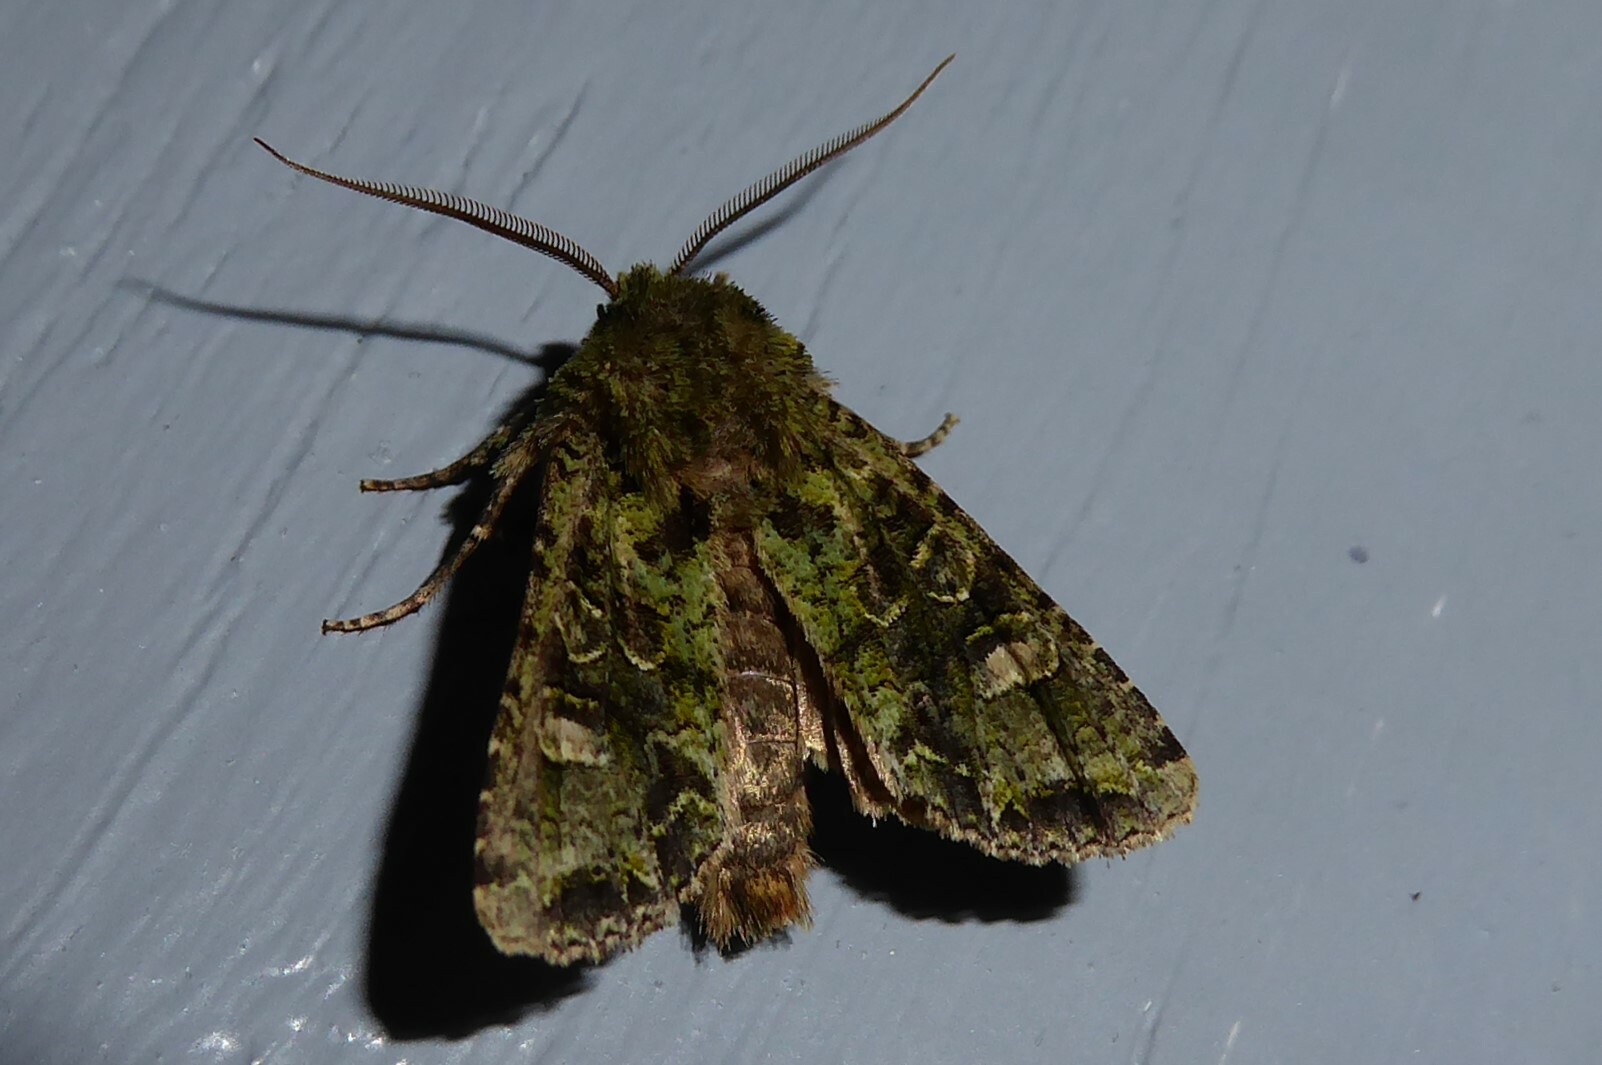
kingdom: Animalia
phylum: Arthropoda
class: Insecta
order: Lepidoptera
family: Noctuidae
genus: Ichneutica
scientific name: Ichneutica
